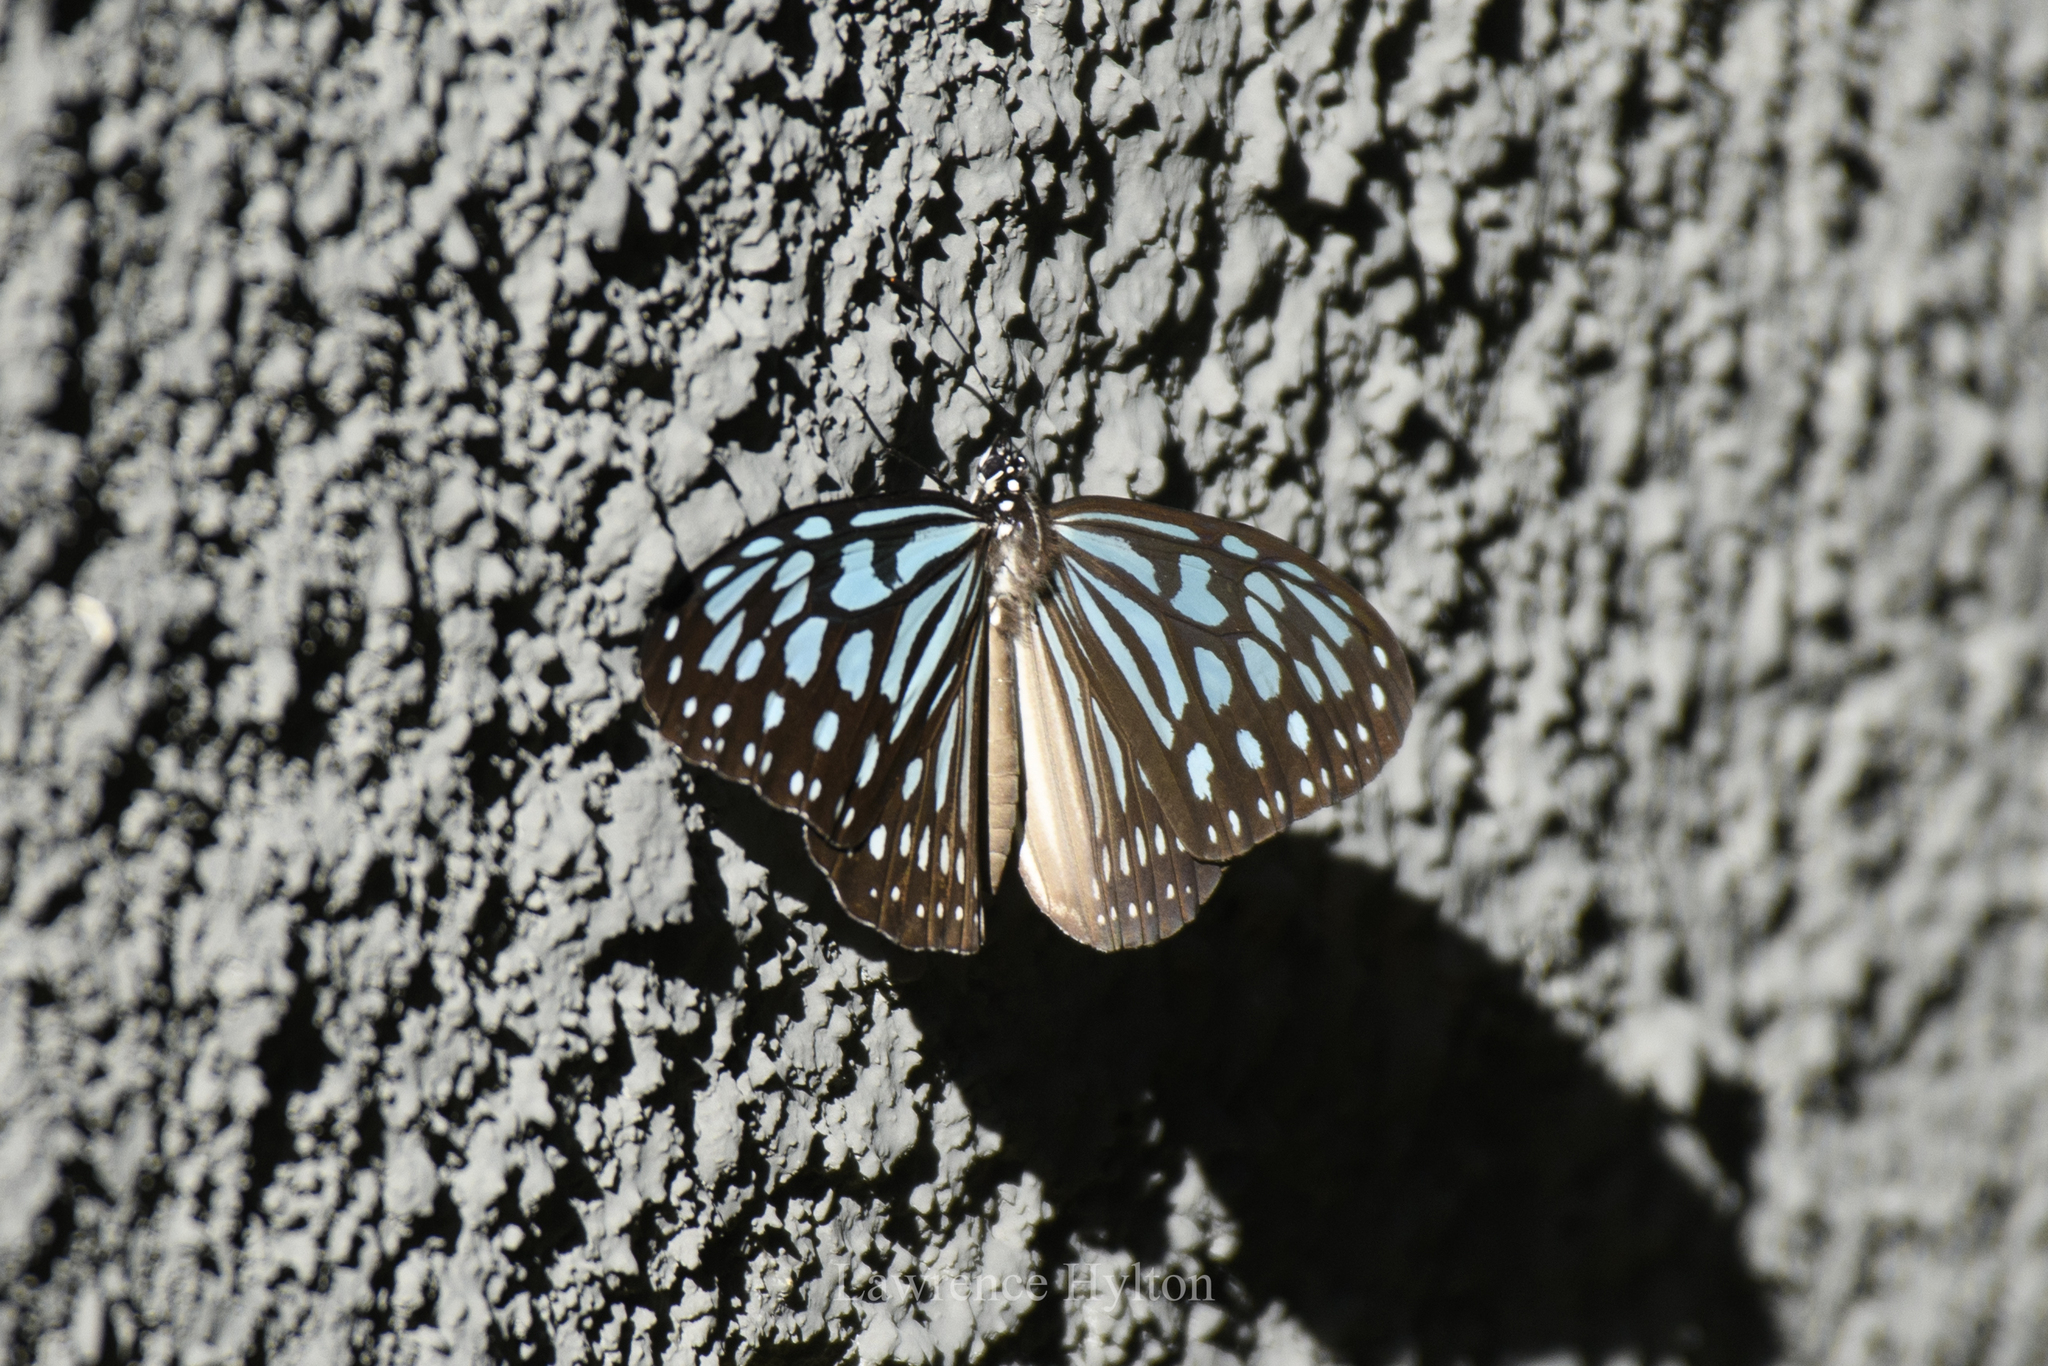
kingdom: Animalia
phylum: Arthropoda
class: Insecta
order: Lepidoptera
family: Nymphalidae
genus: Ideopsis
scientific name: Ideopsis similis
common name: Ceylon blue glassy tiger
